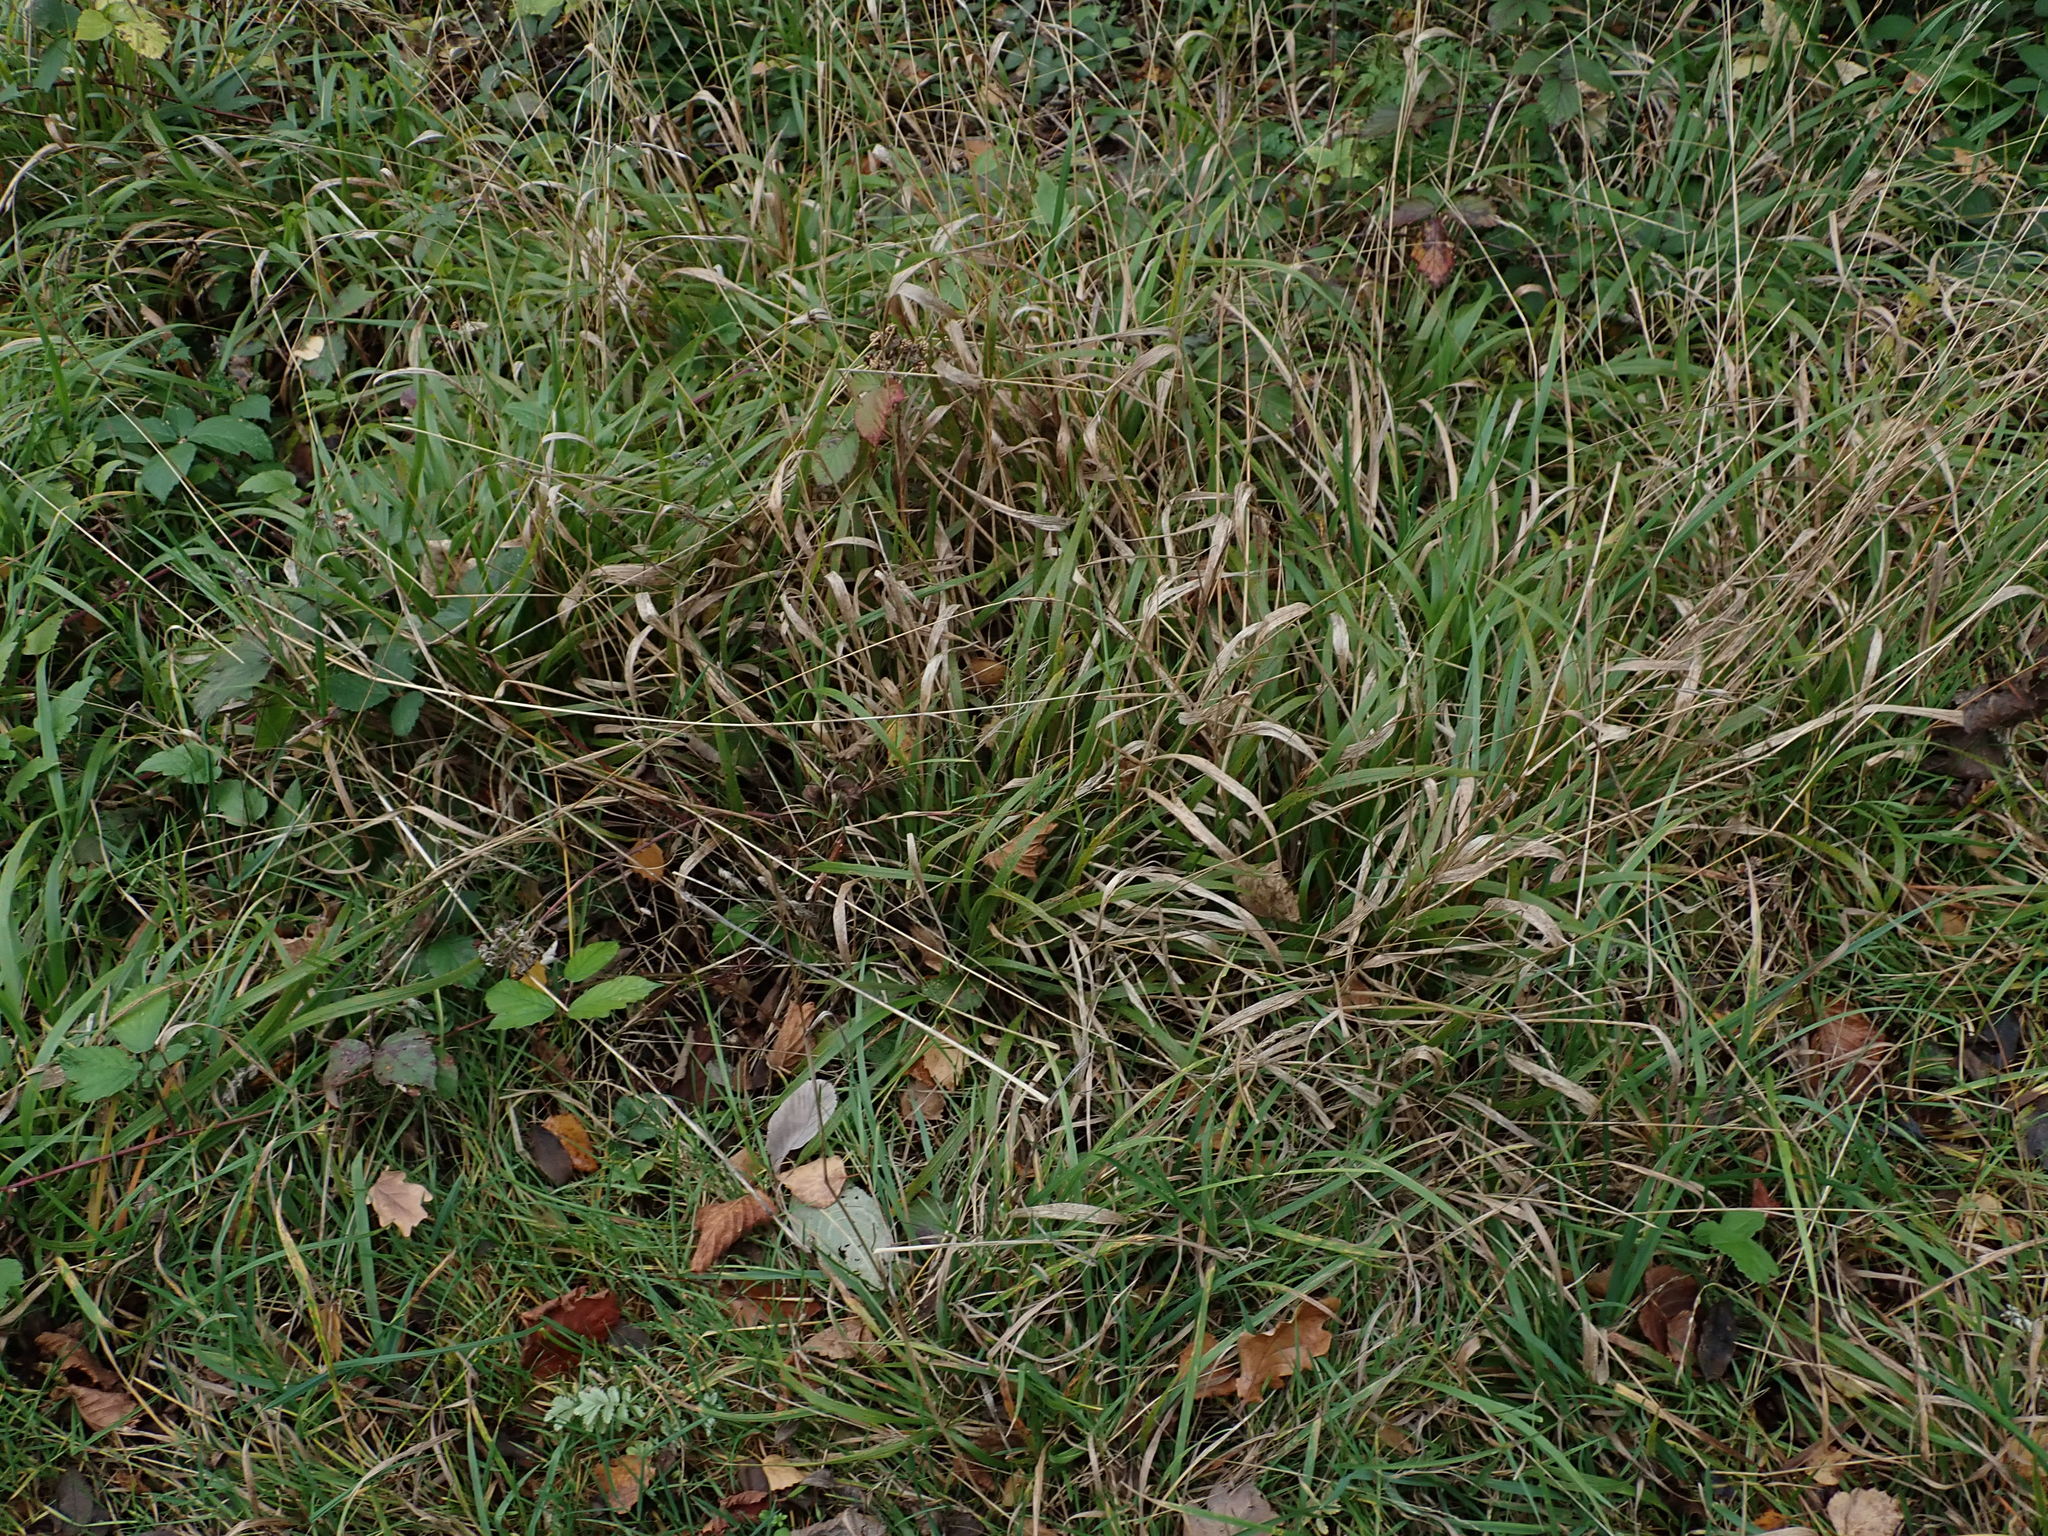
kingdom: Plantae
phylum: Tracheophyta
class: Liliopsida
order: Poales
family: Poaceae
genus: Brachypodium
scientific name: Brachypodium sylvaticum
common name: False-brome
